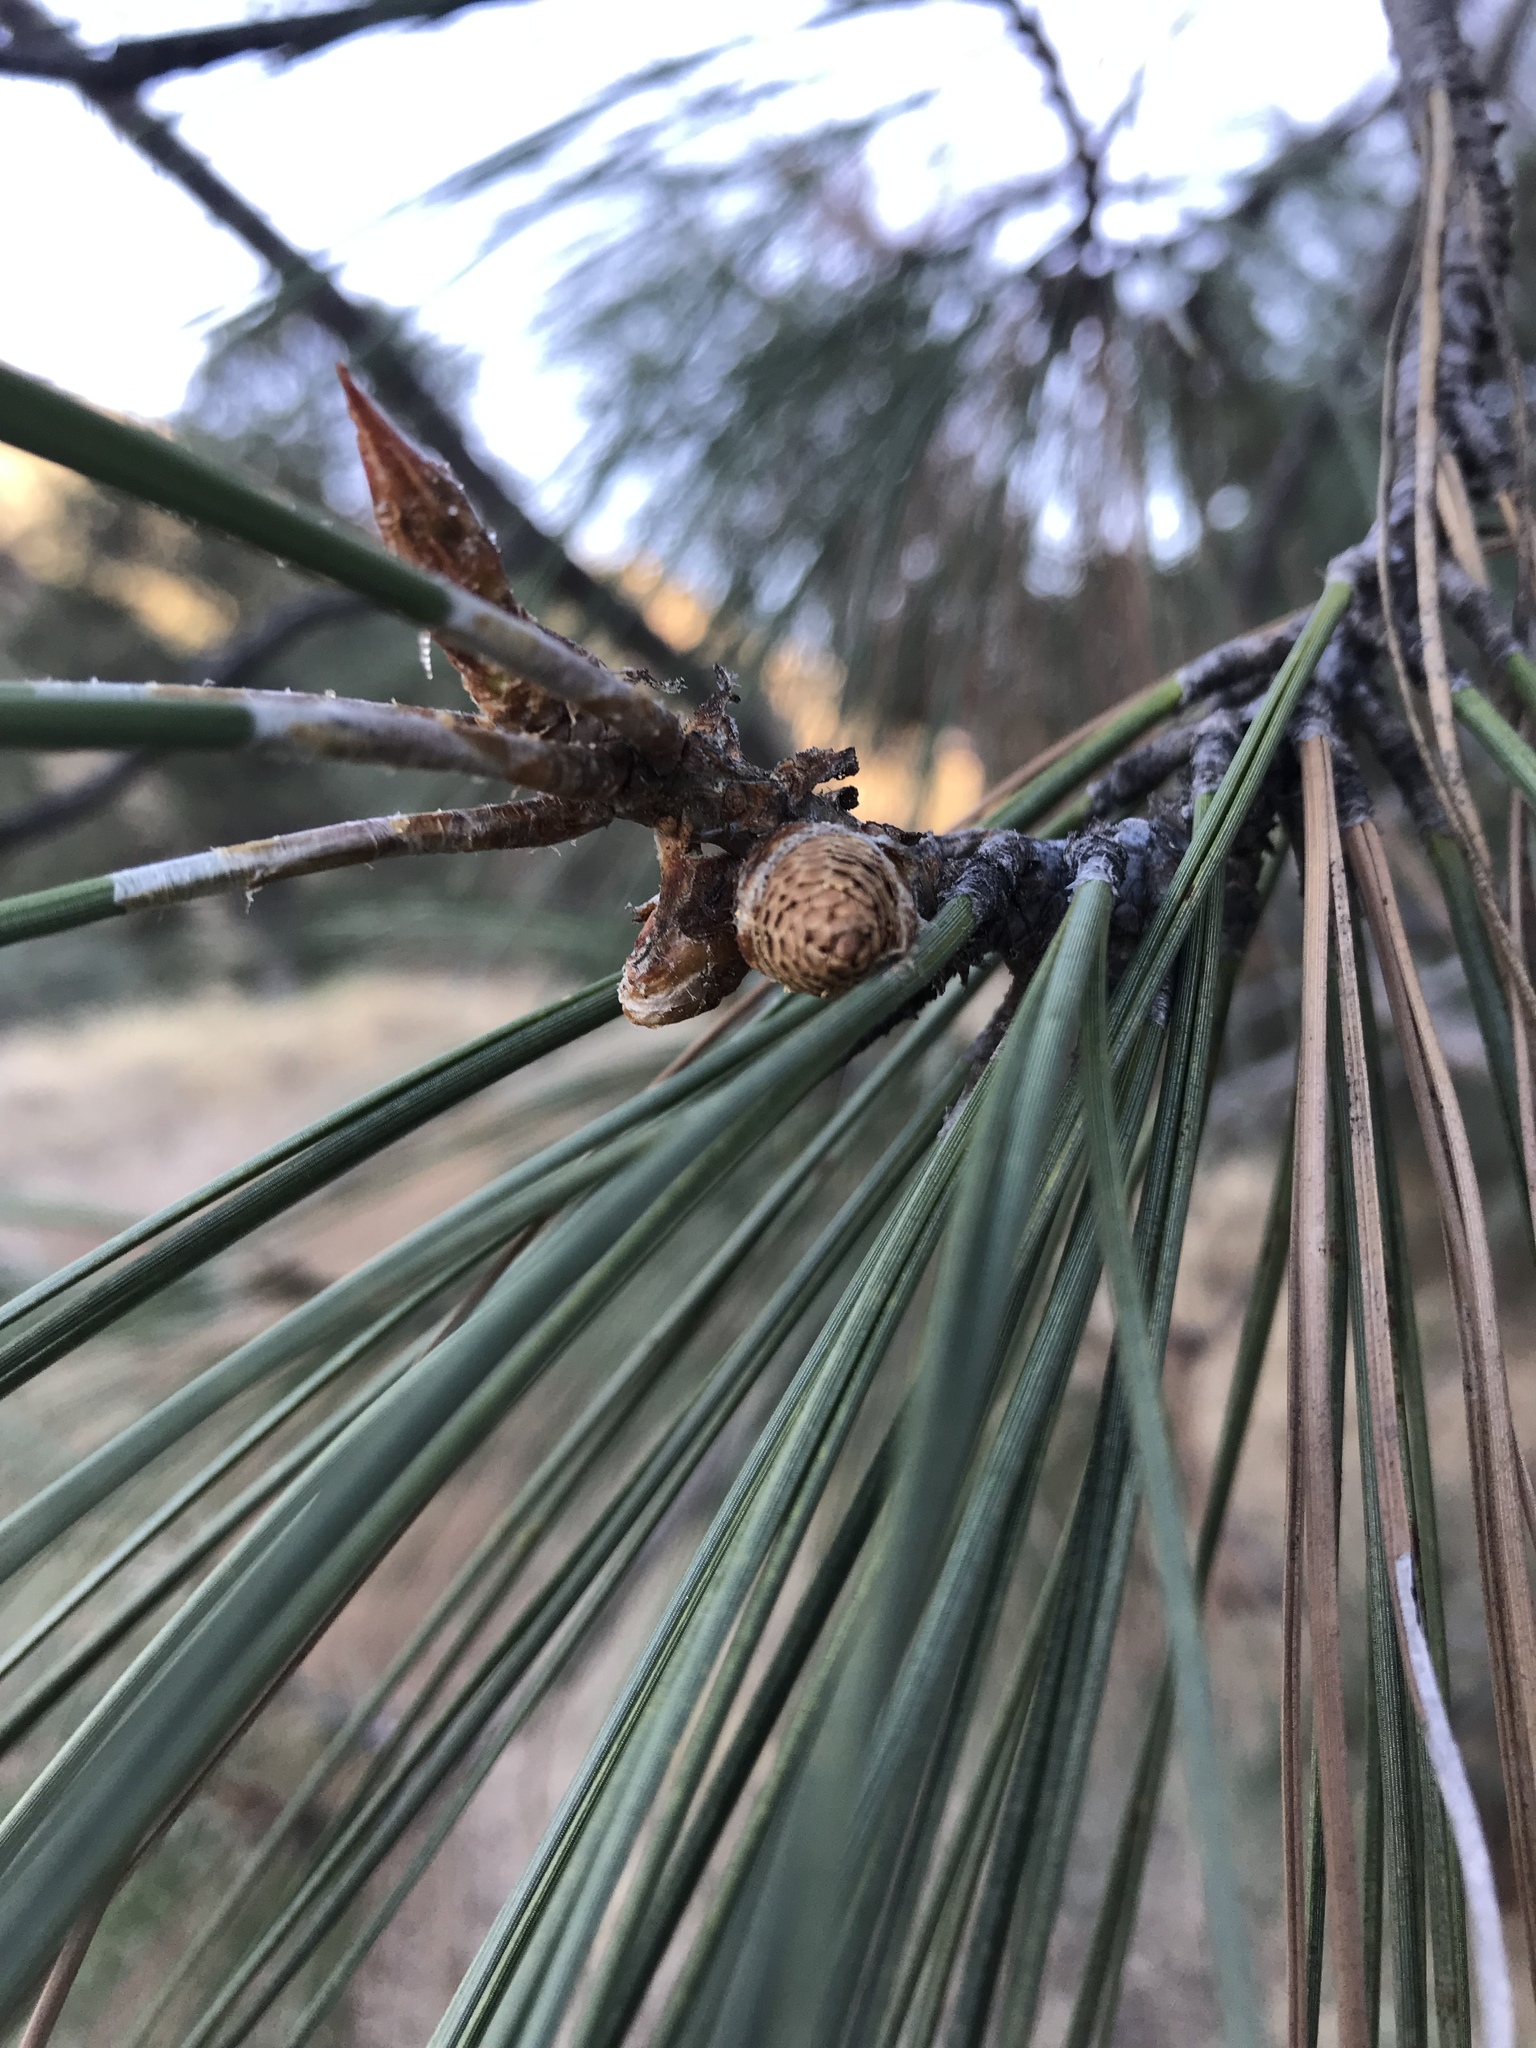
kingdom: Plantae
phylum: Tracheophyta
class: Pinopsida
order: Pinales
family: Pinaceae
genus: Pinus
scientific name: Pinus sabiniana
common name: Bull pine
